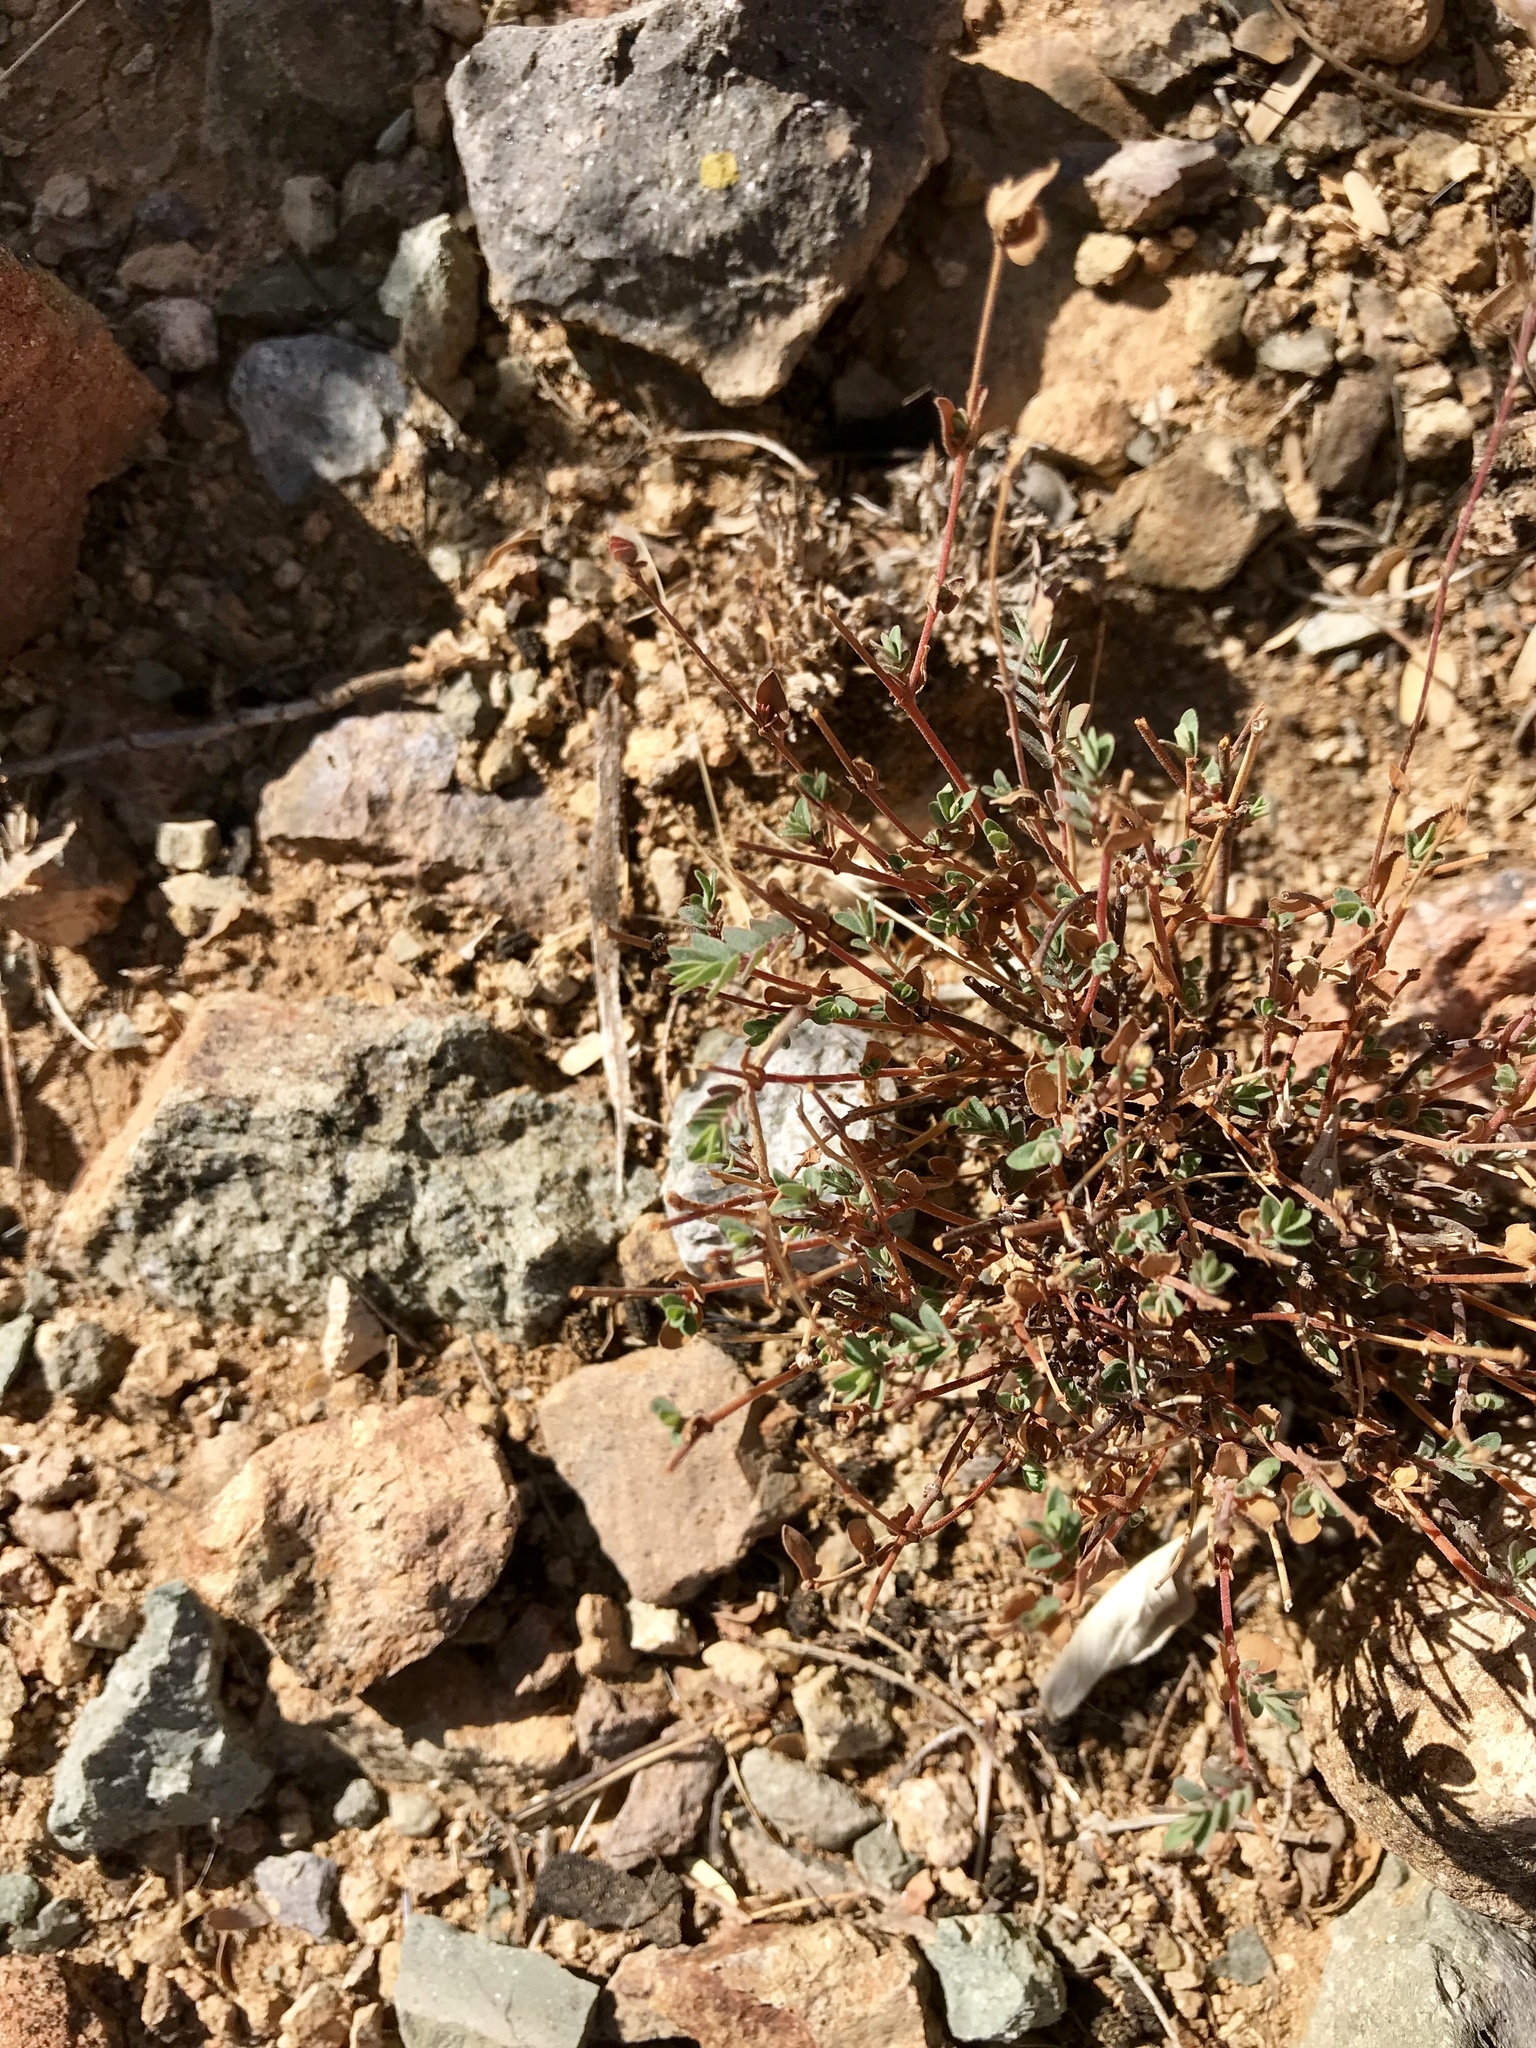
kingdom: Plantae
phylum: Tracheophyta
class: Magnoliopsida
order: Malpighiales
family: Euphorbiaceae
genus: Euphorbia
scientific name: Euphorbia capitellata
